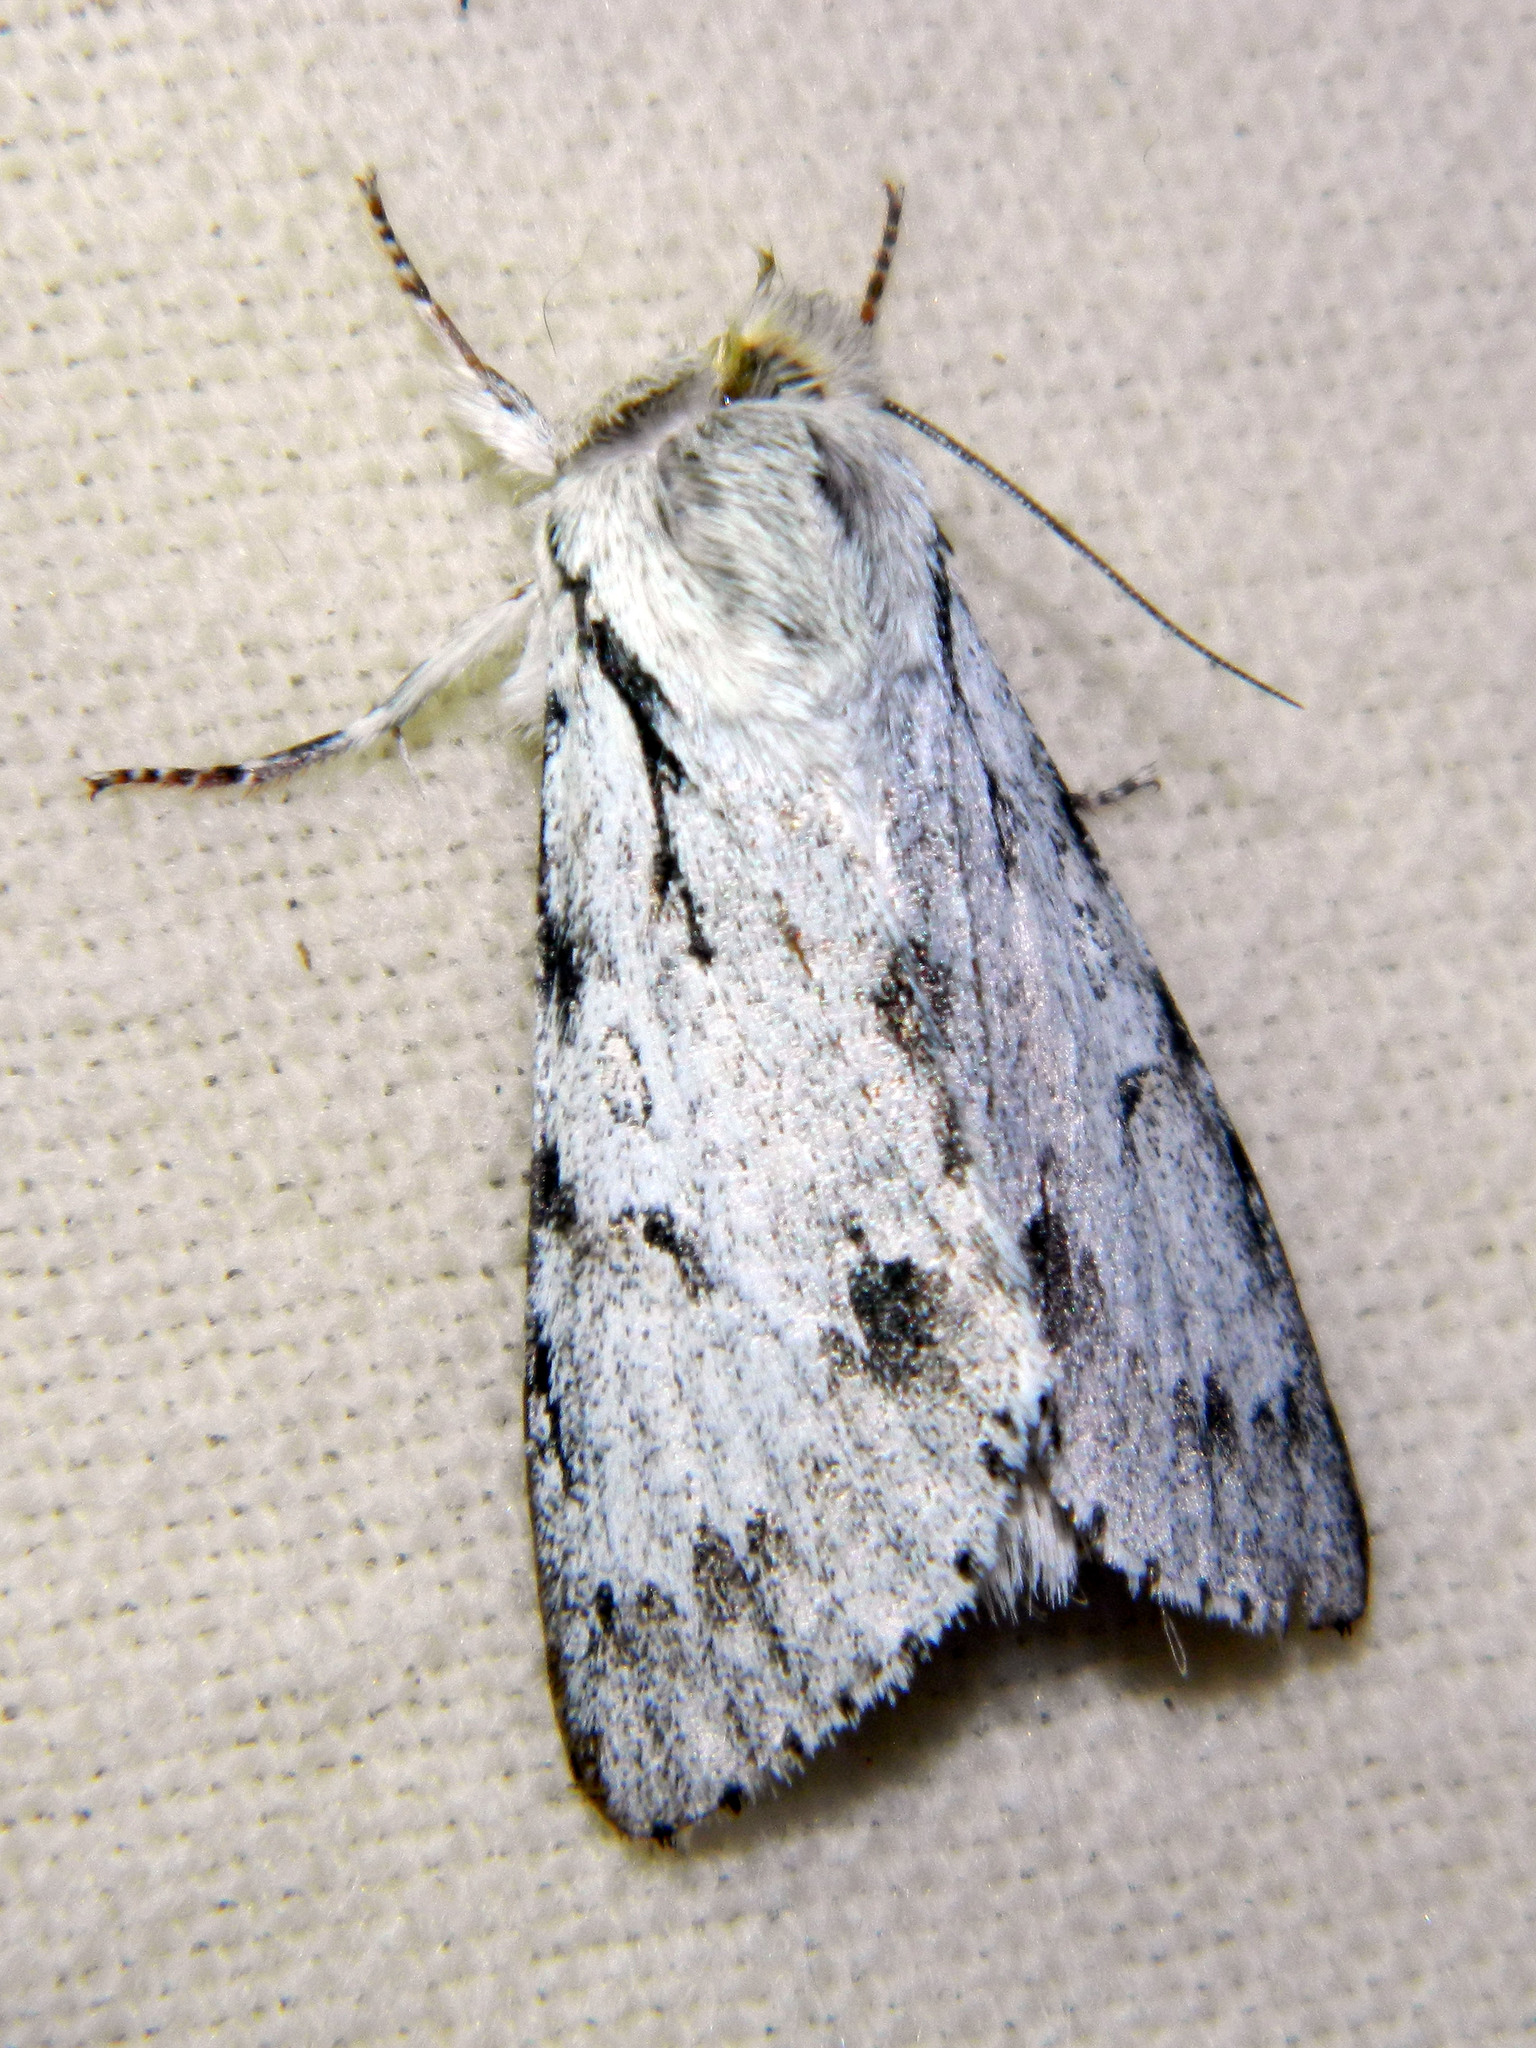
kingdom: Animalia
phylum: Arthropoda
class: Insecta
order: Lepidoptera
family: Noctuidae
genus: Acronicta
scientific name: Acronicta lepusculina
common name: Cottonwood dagger
